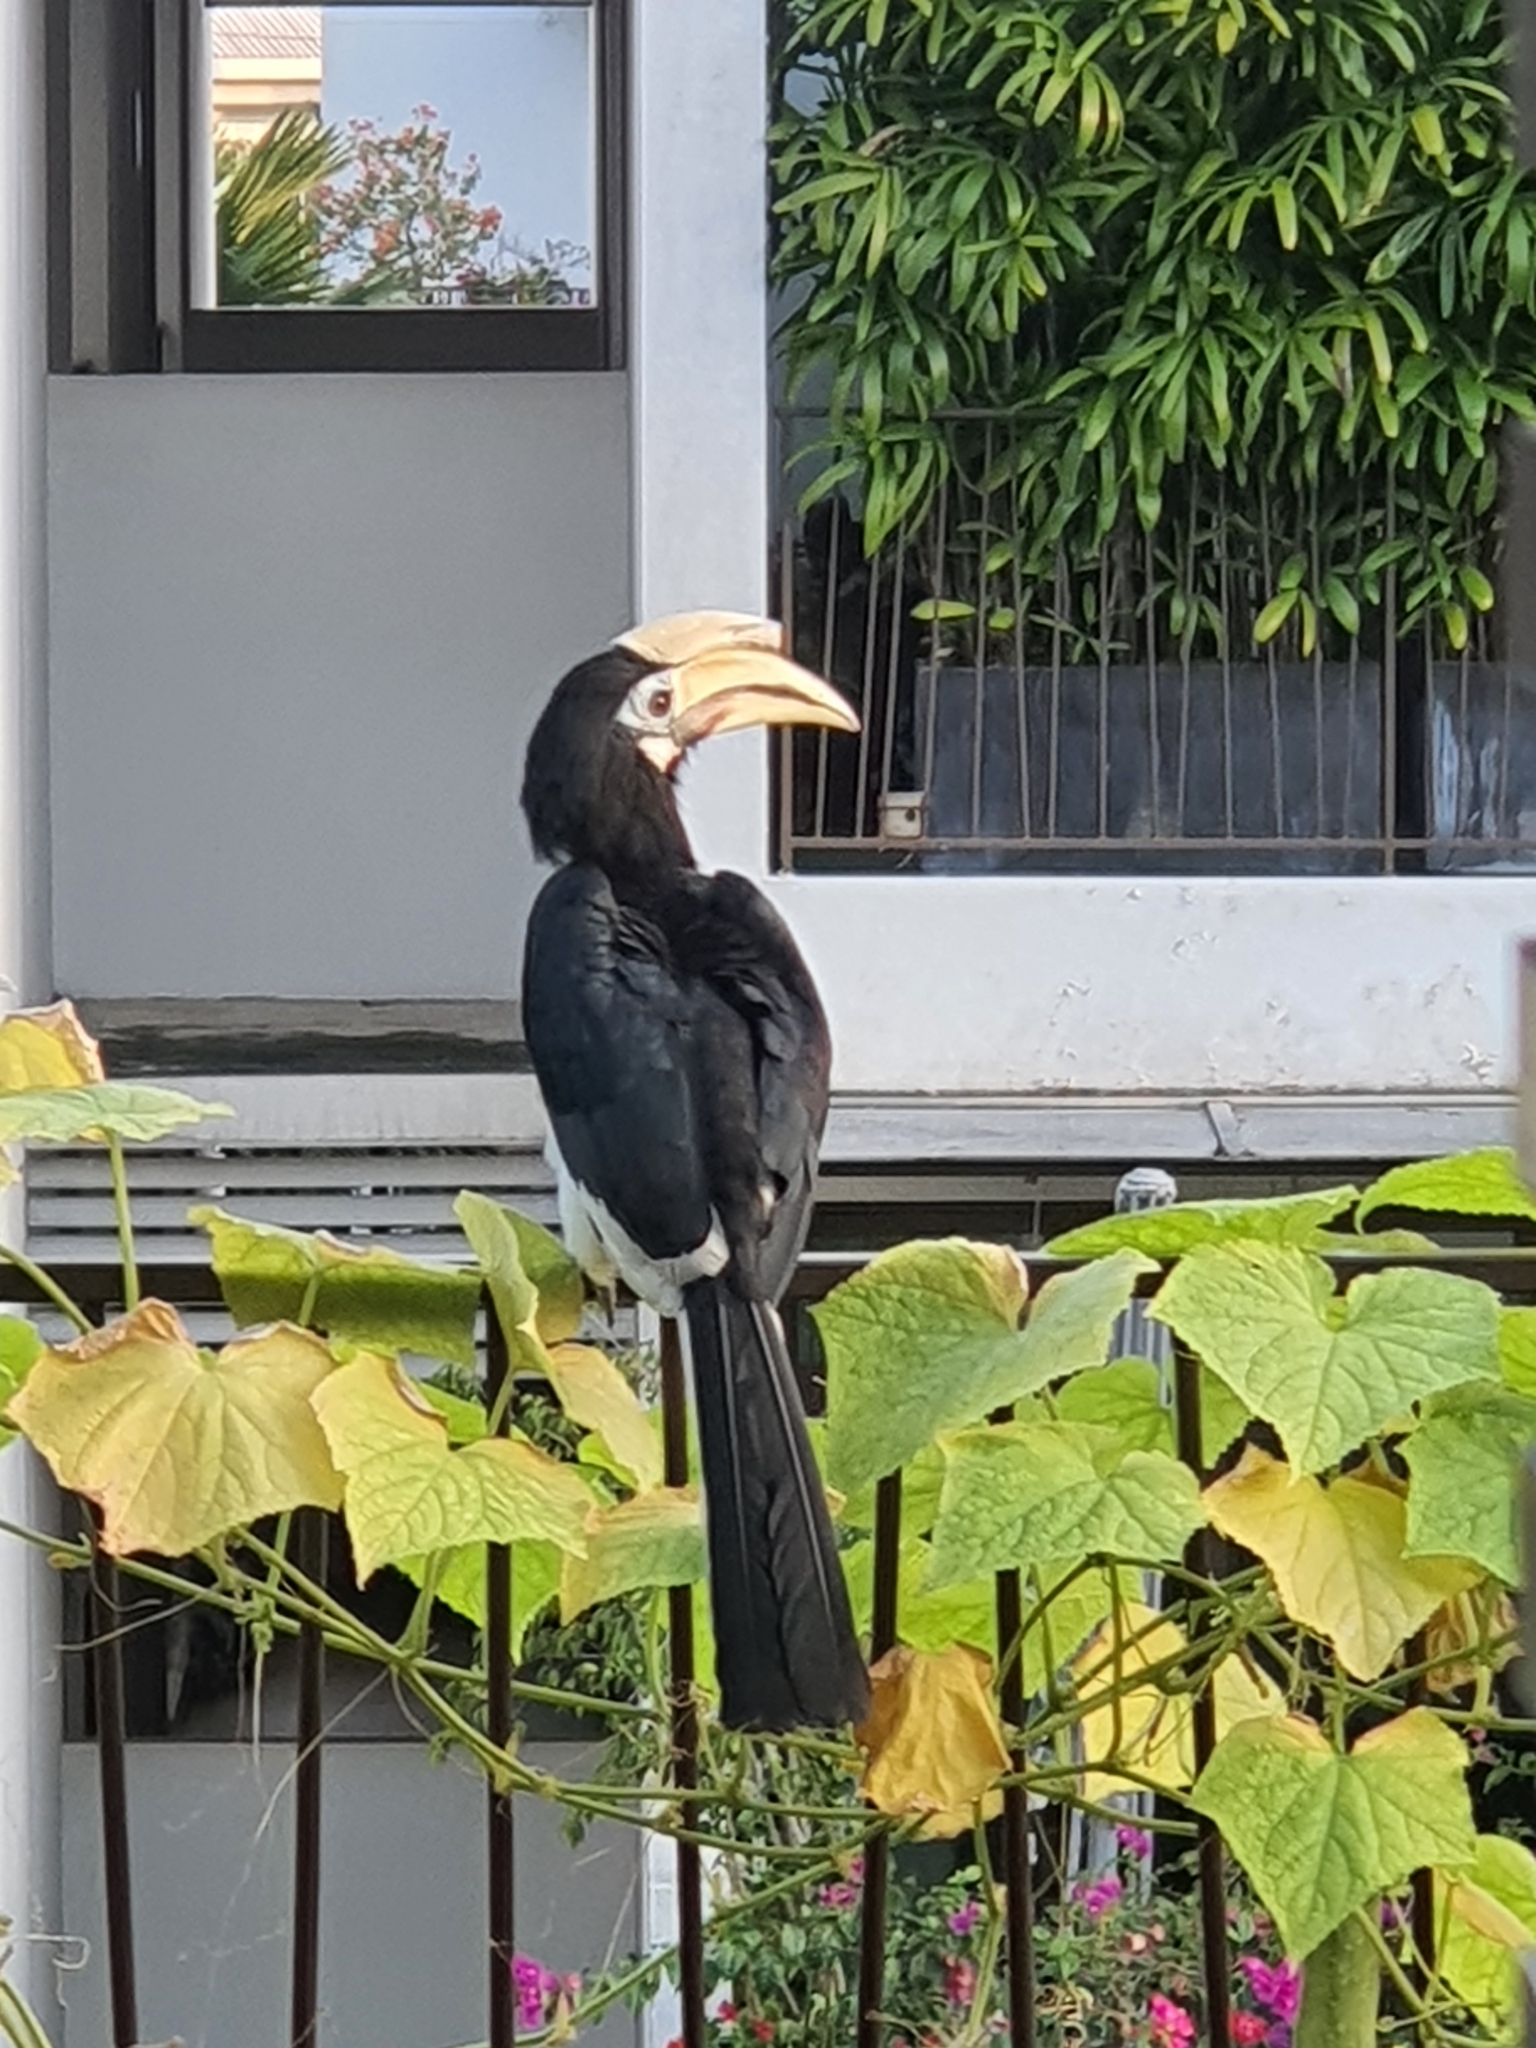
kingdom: Animalia
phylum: Chordata
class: Aves
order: Bucerotiformes
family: Bucerotidae
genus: Anthracoceros
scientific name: Anthracoceros albirostris
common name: Oriental pied-hornbill
